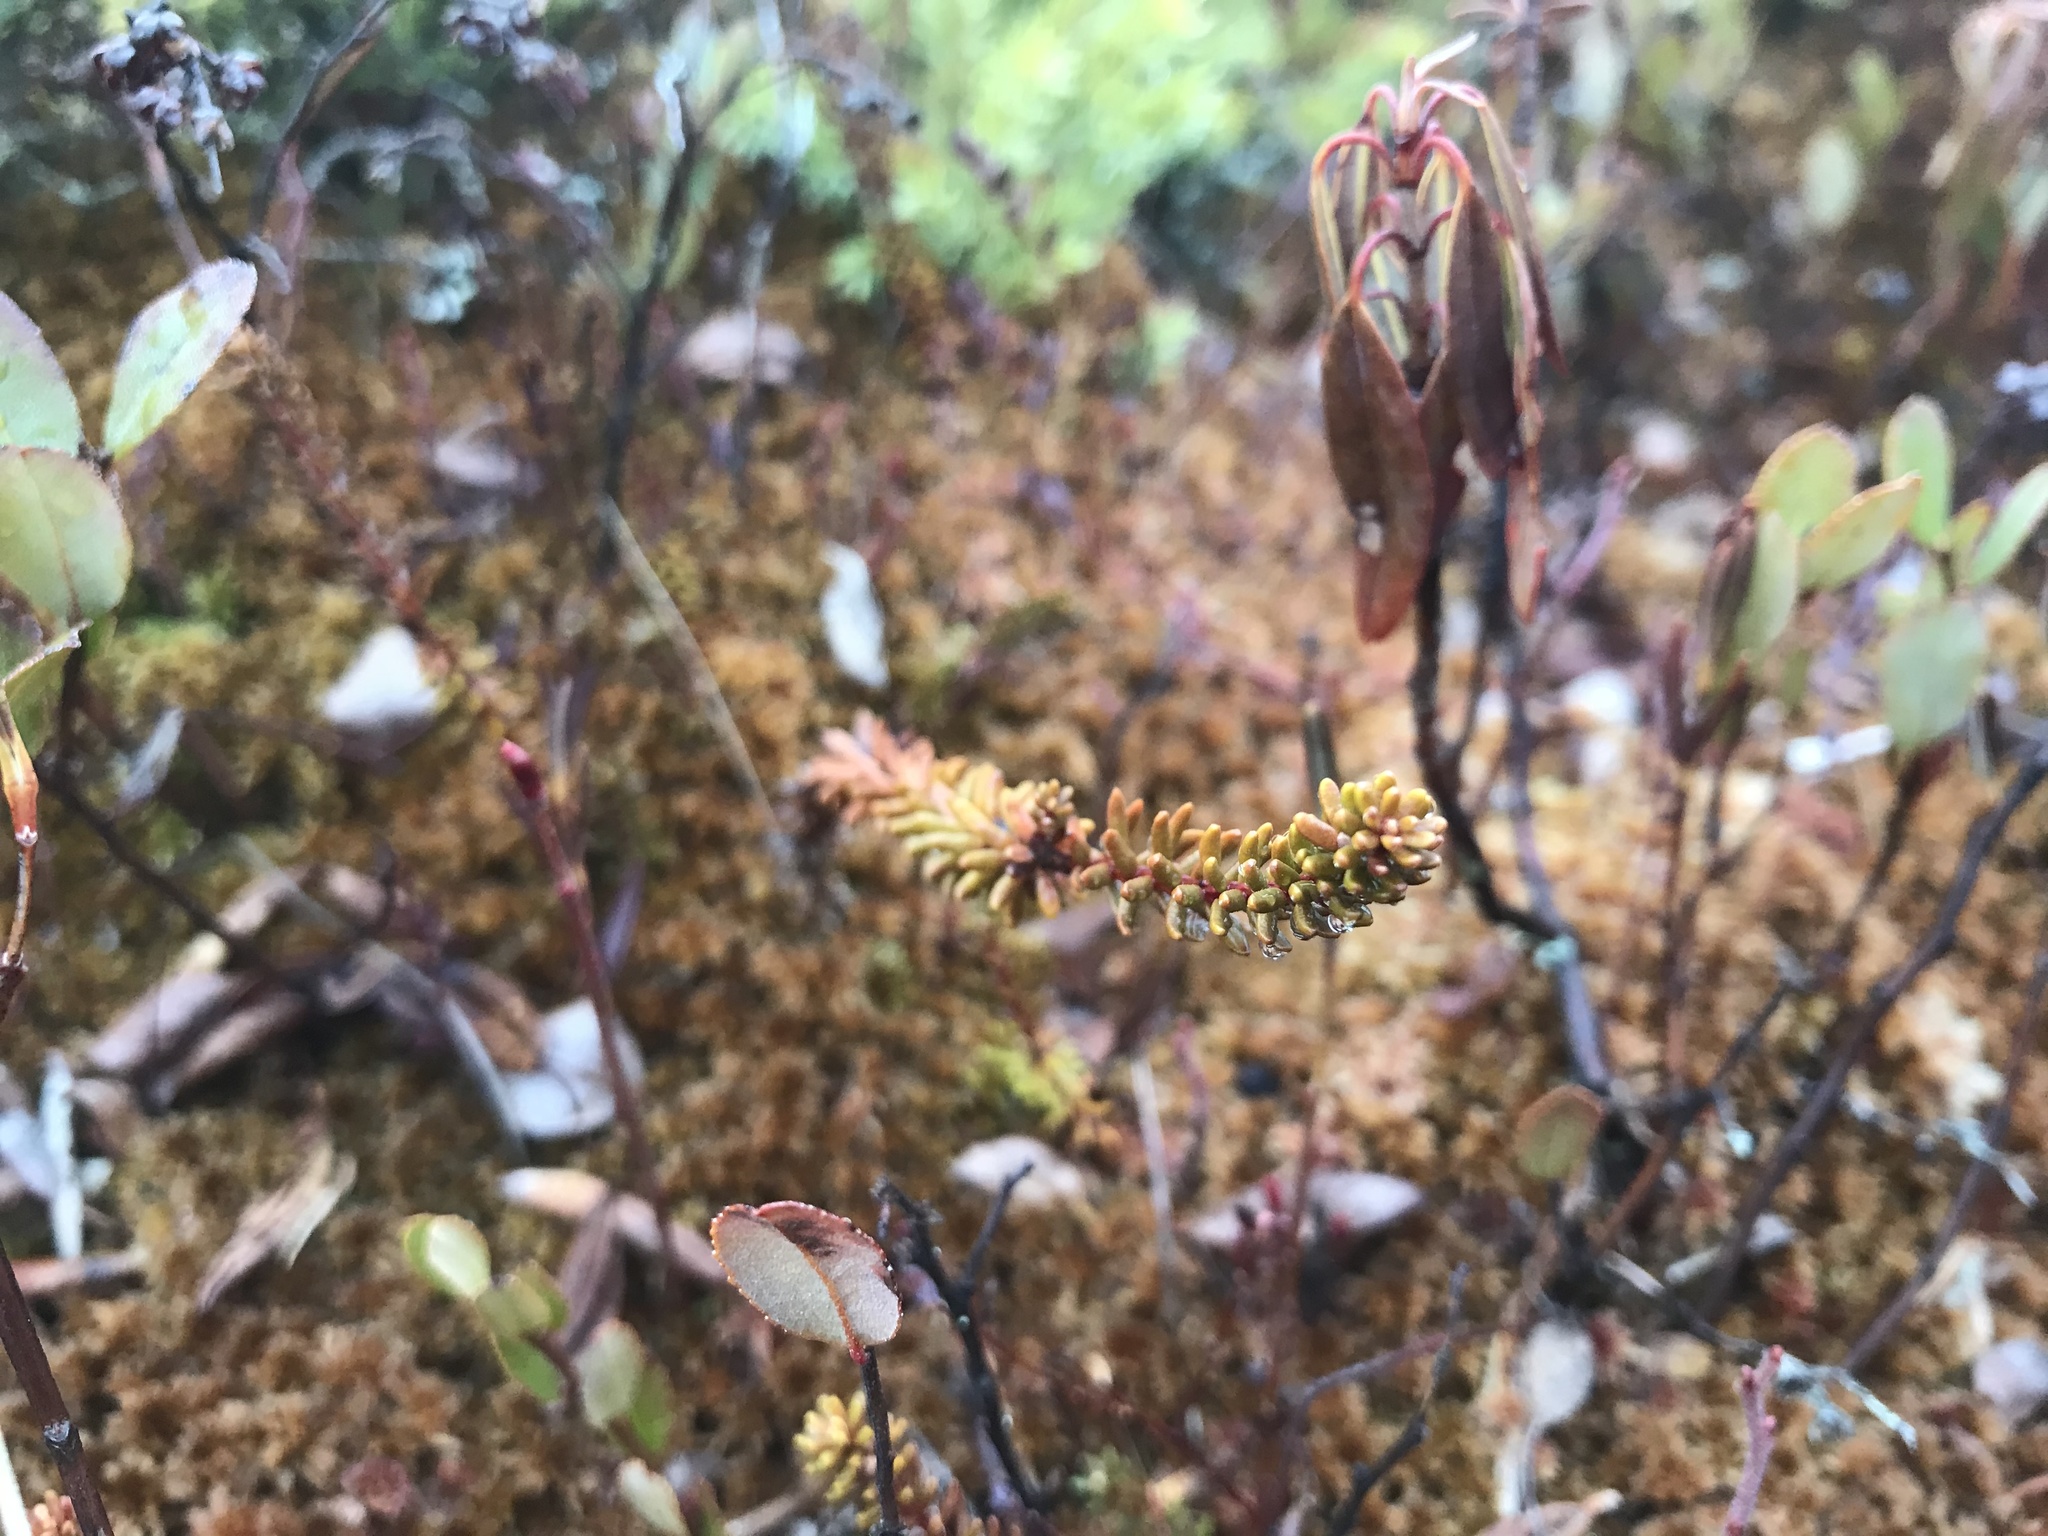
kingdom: Plantae
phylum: Tracheophyta
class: Magnoliopsida
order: Ericales
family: Ericaceae
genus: Empetrum
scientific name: Empetrum nigrum
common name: Black crowberry
